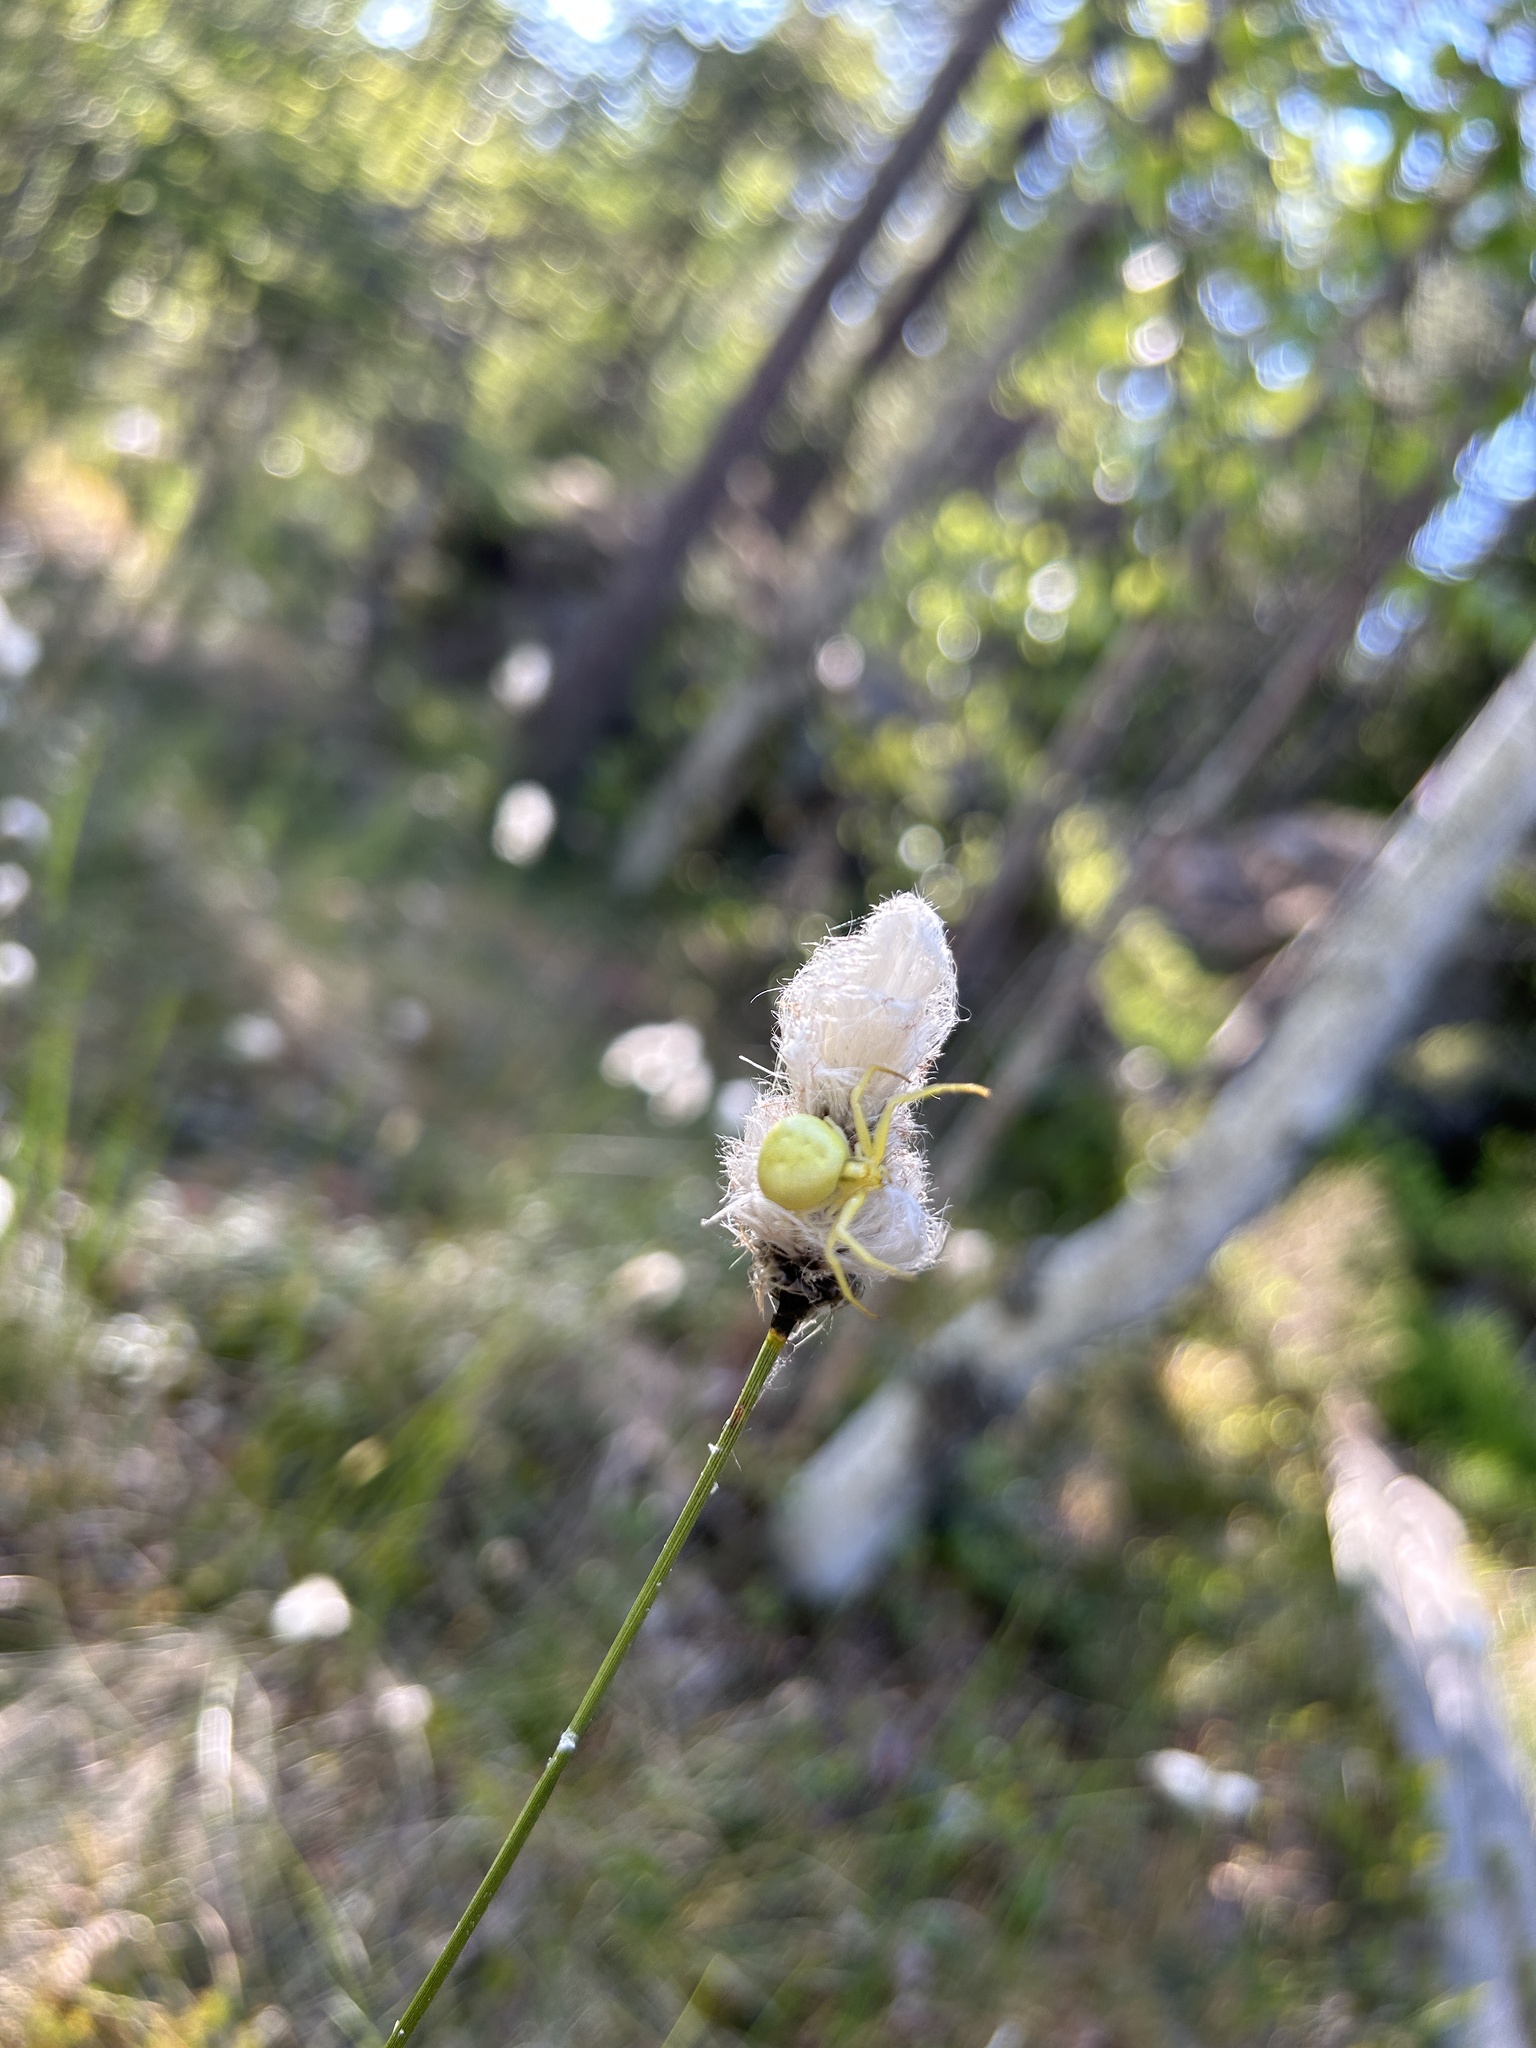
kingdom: Animalia
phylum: Arthropoda
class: Arachnida
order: Araneae
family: Thomisidae
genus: Misumena
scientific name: Misumena vatia
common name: Goldenrod crab spider
